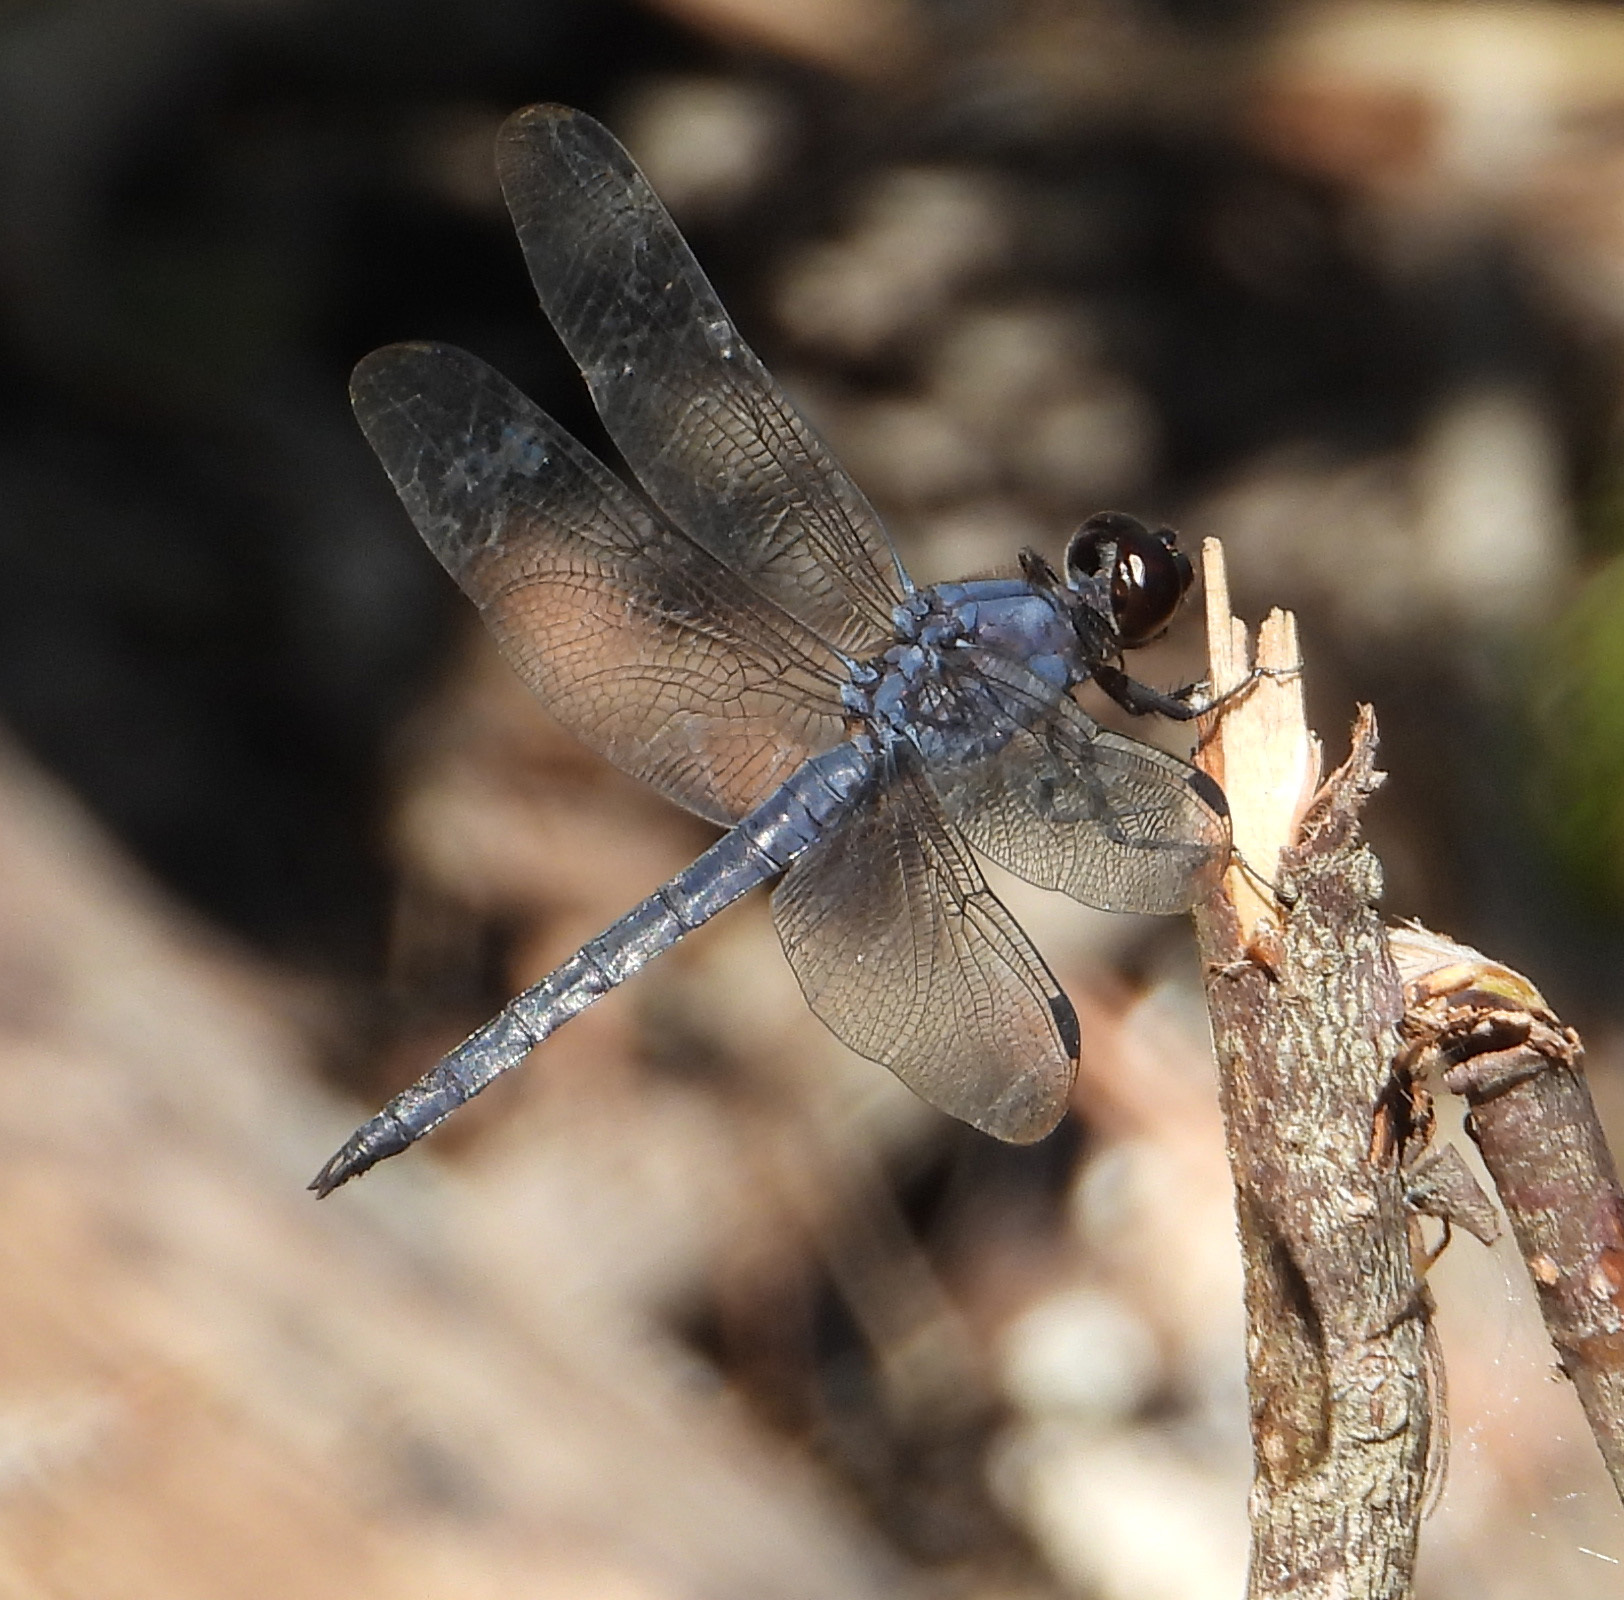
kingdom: Animalia
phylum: Arthropoda
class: Insecta
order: Odonata
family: Libellulidae
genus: Libellula
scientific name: Libellula incesta
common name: Slaty skimmer
